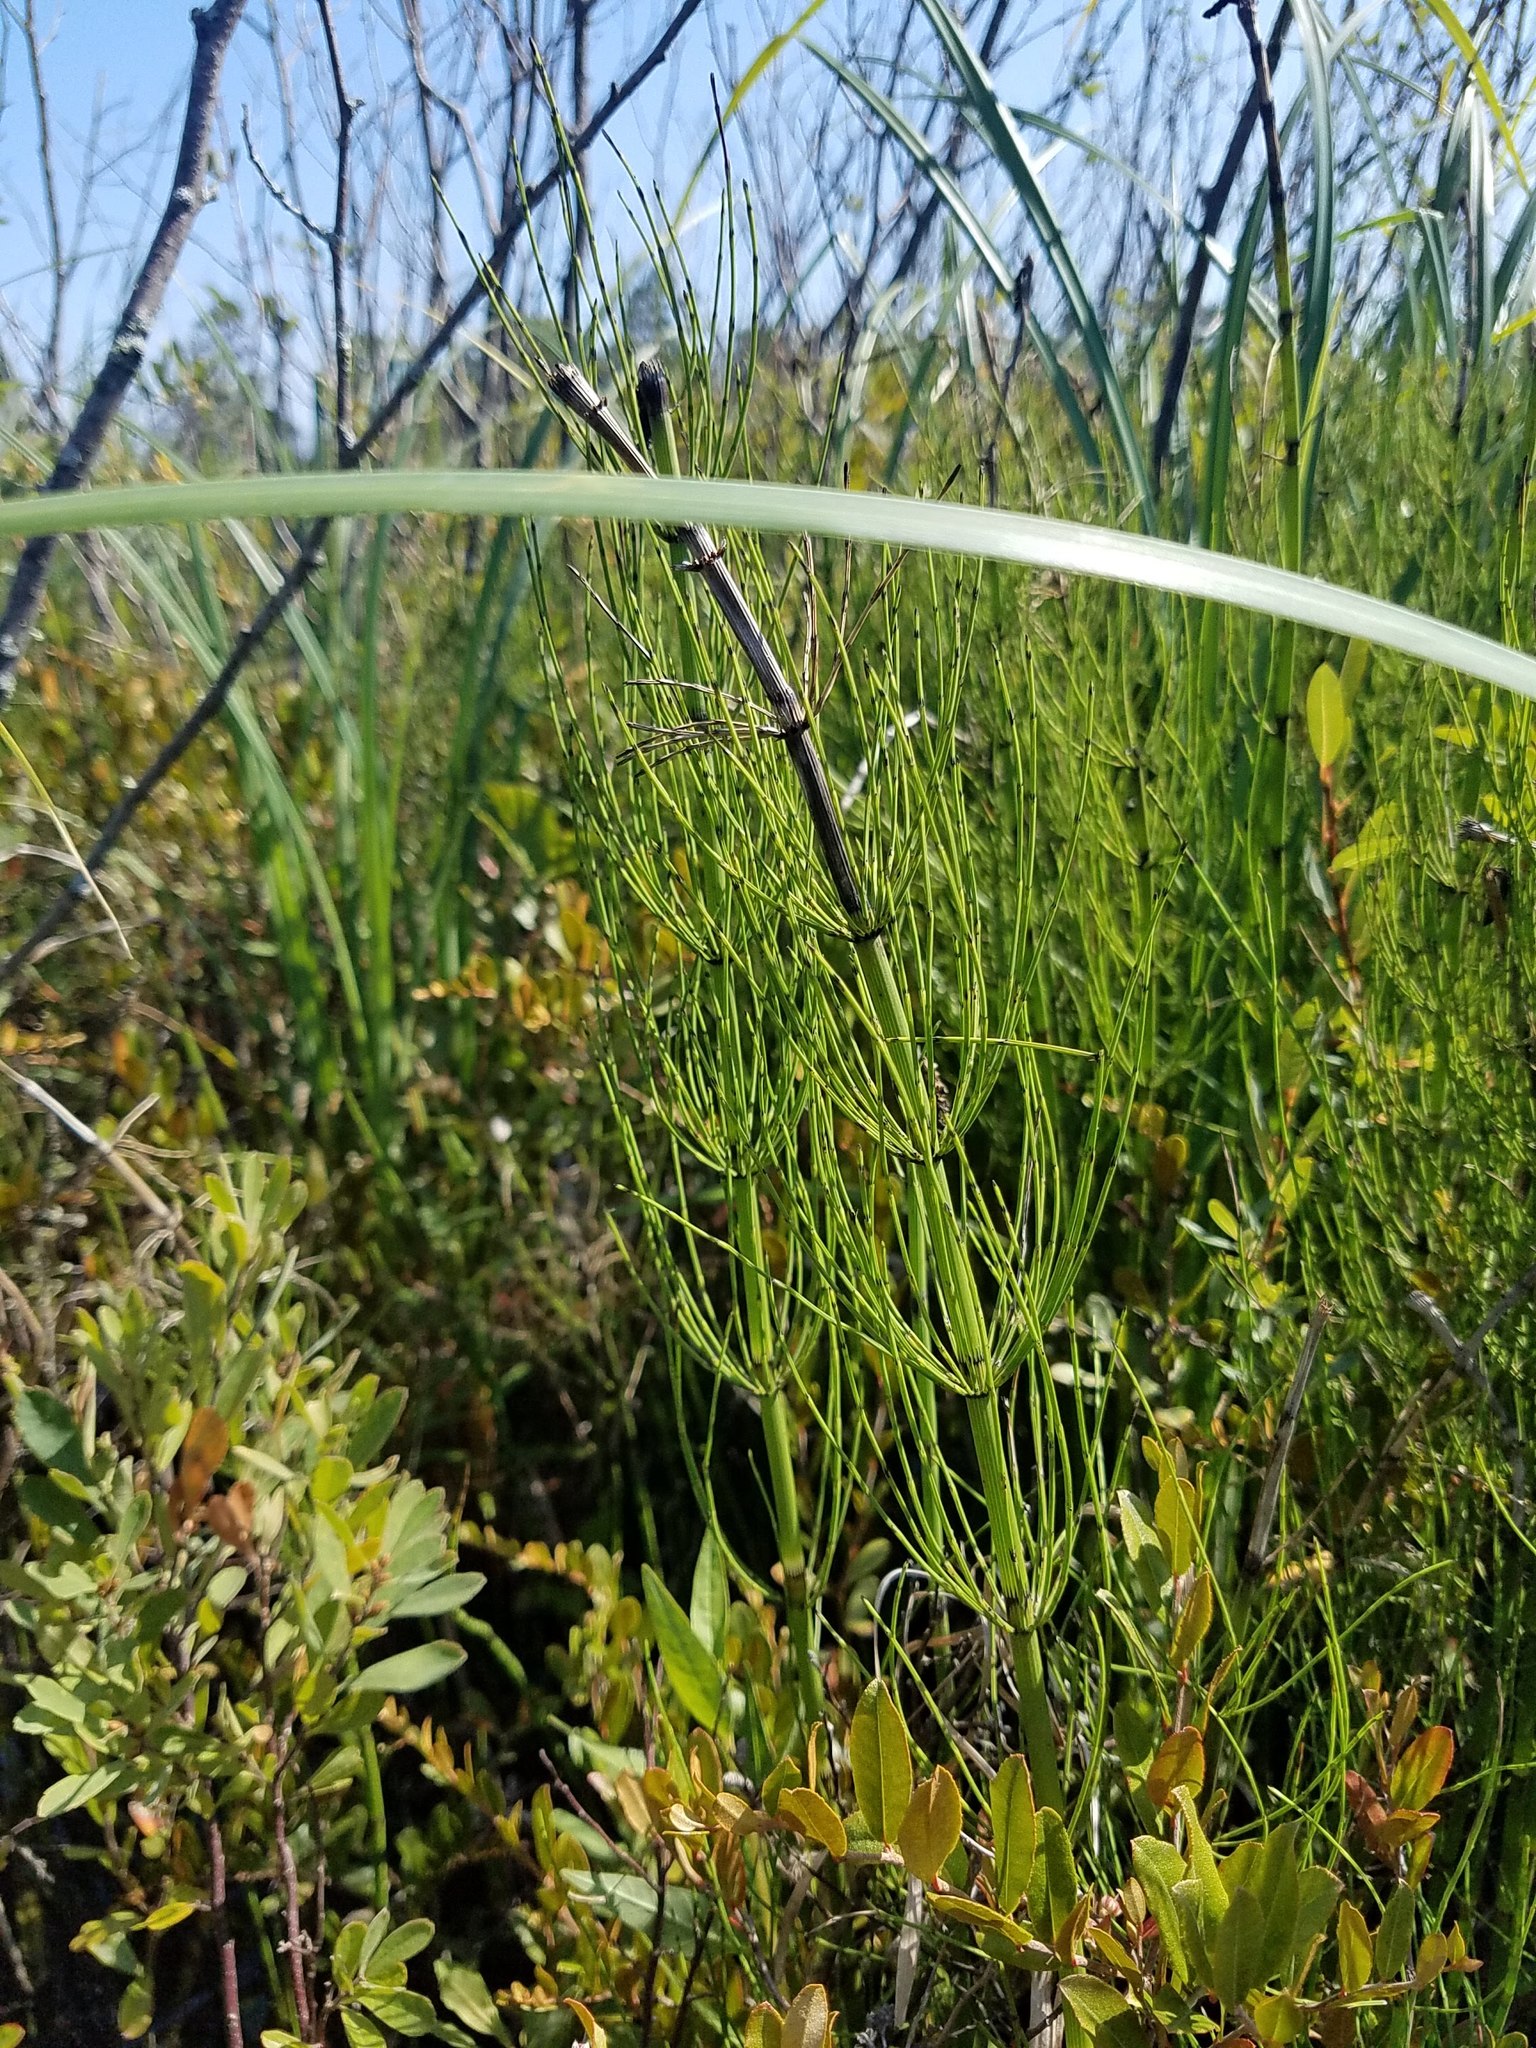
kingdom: Plantae
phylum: Tracheophyta
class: Polypodiopsida
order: Equisetales
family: Equisetaceae
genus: Equisetum
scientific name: Equisetum fluviatile
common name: Water horsetail
